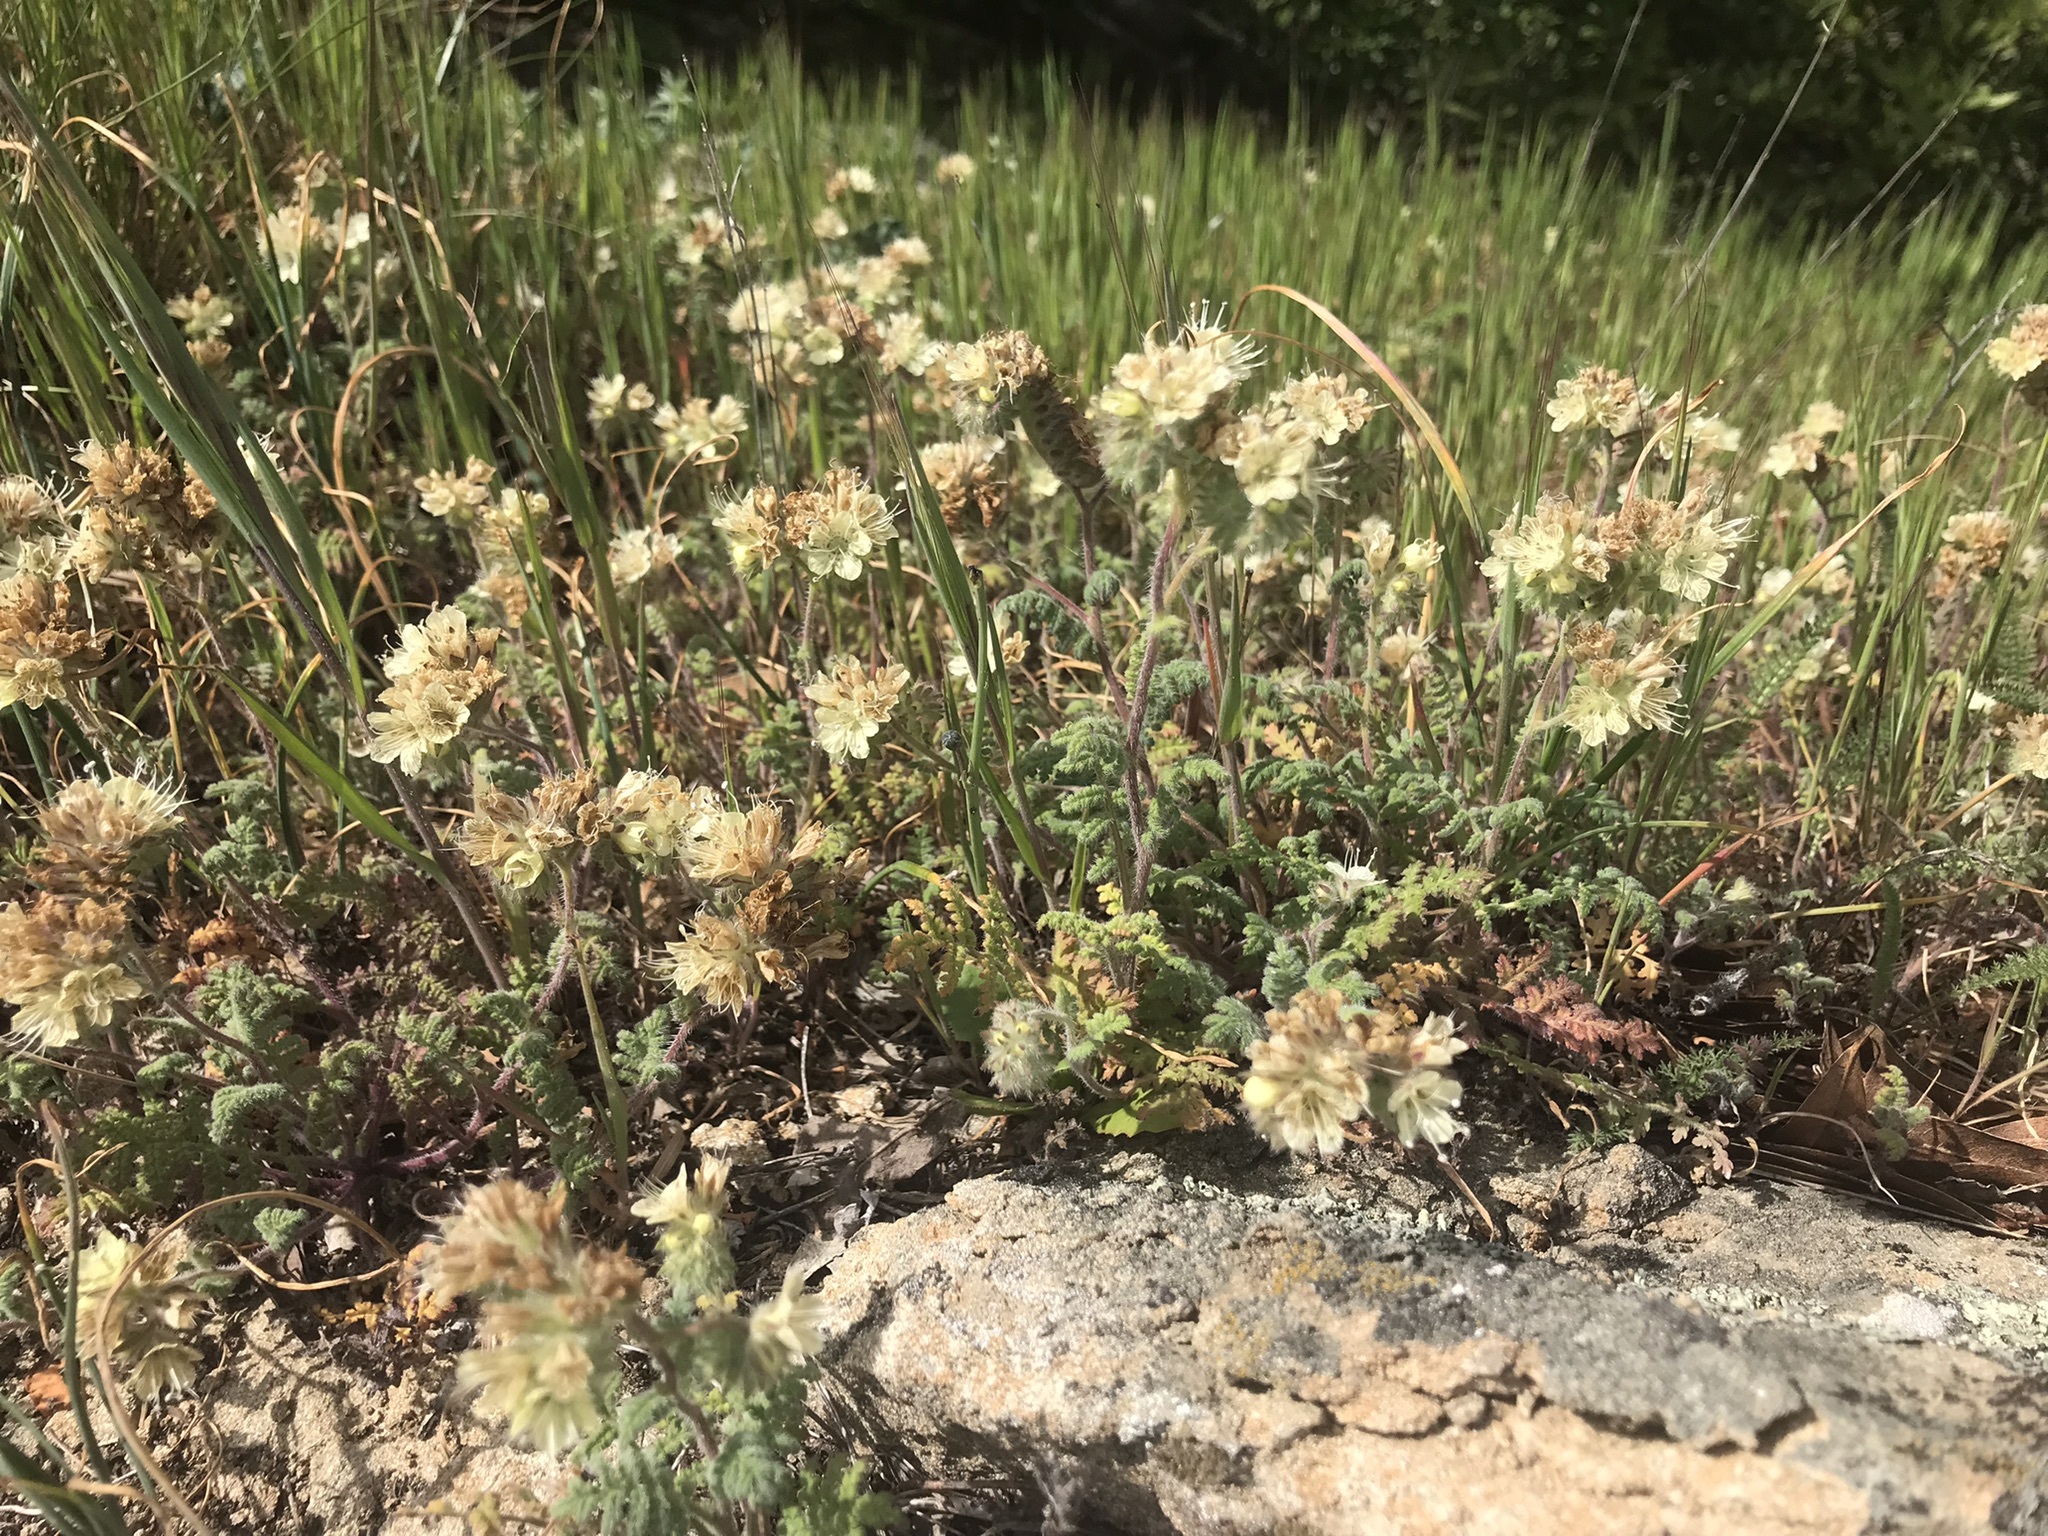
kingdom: Plantae
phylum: Tracheophyta
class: Magnoliopsida
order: Boraginales
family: Hydrophyllaceae
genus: Phacelia
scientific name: Phacelia distans
